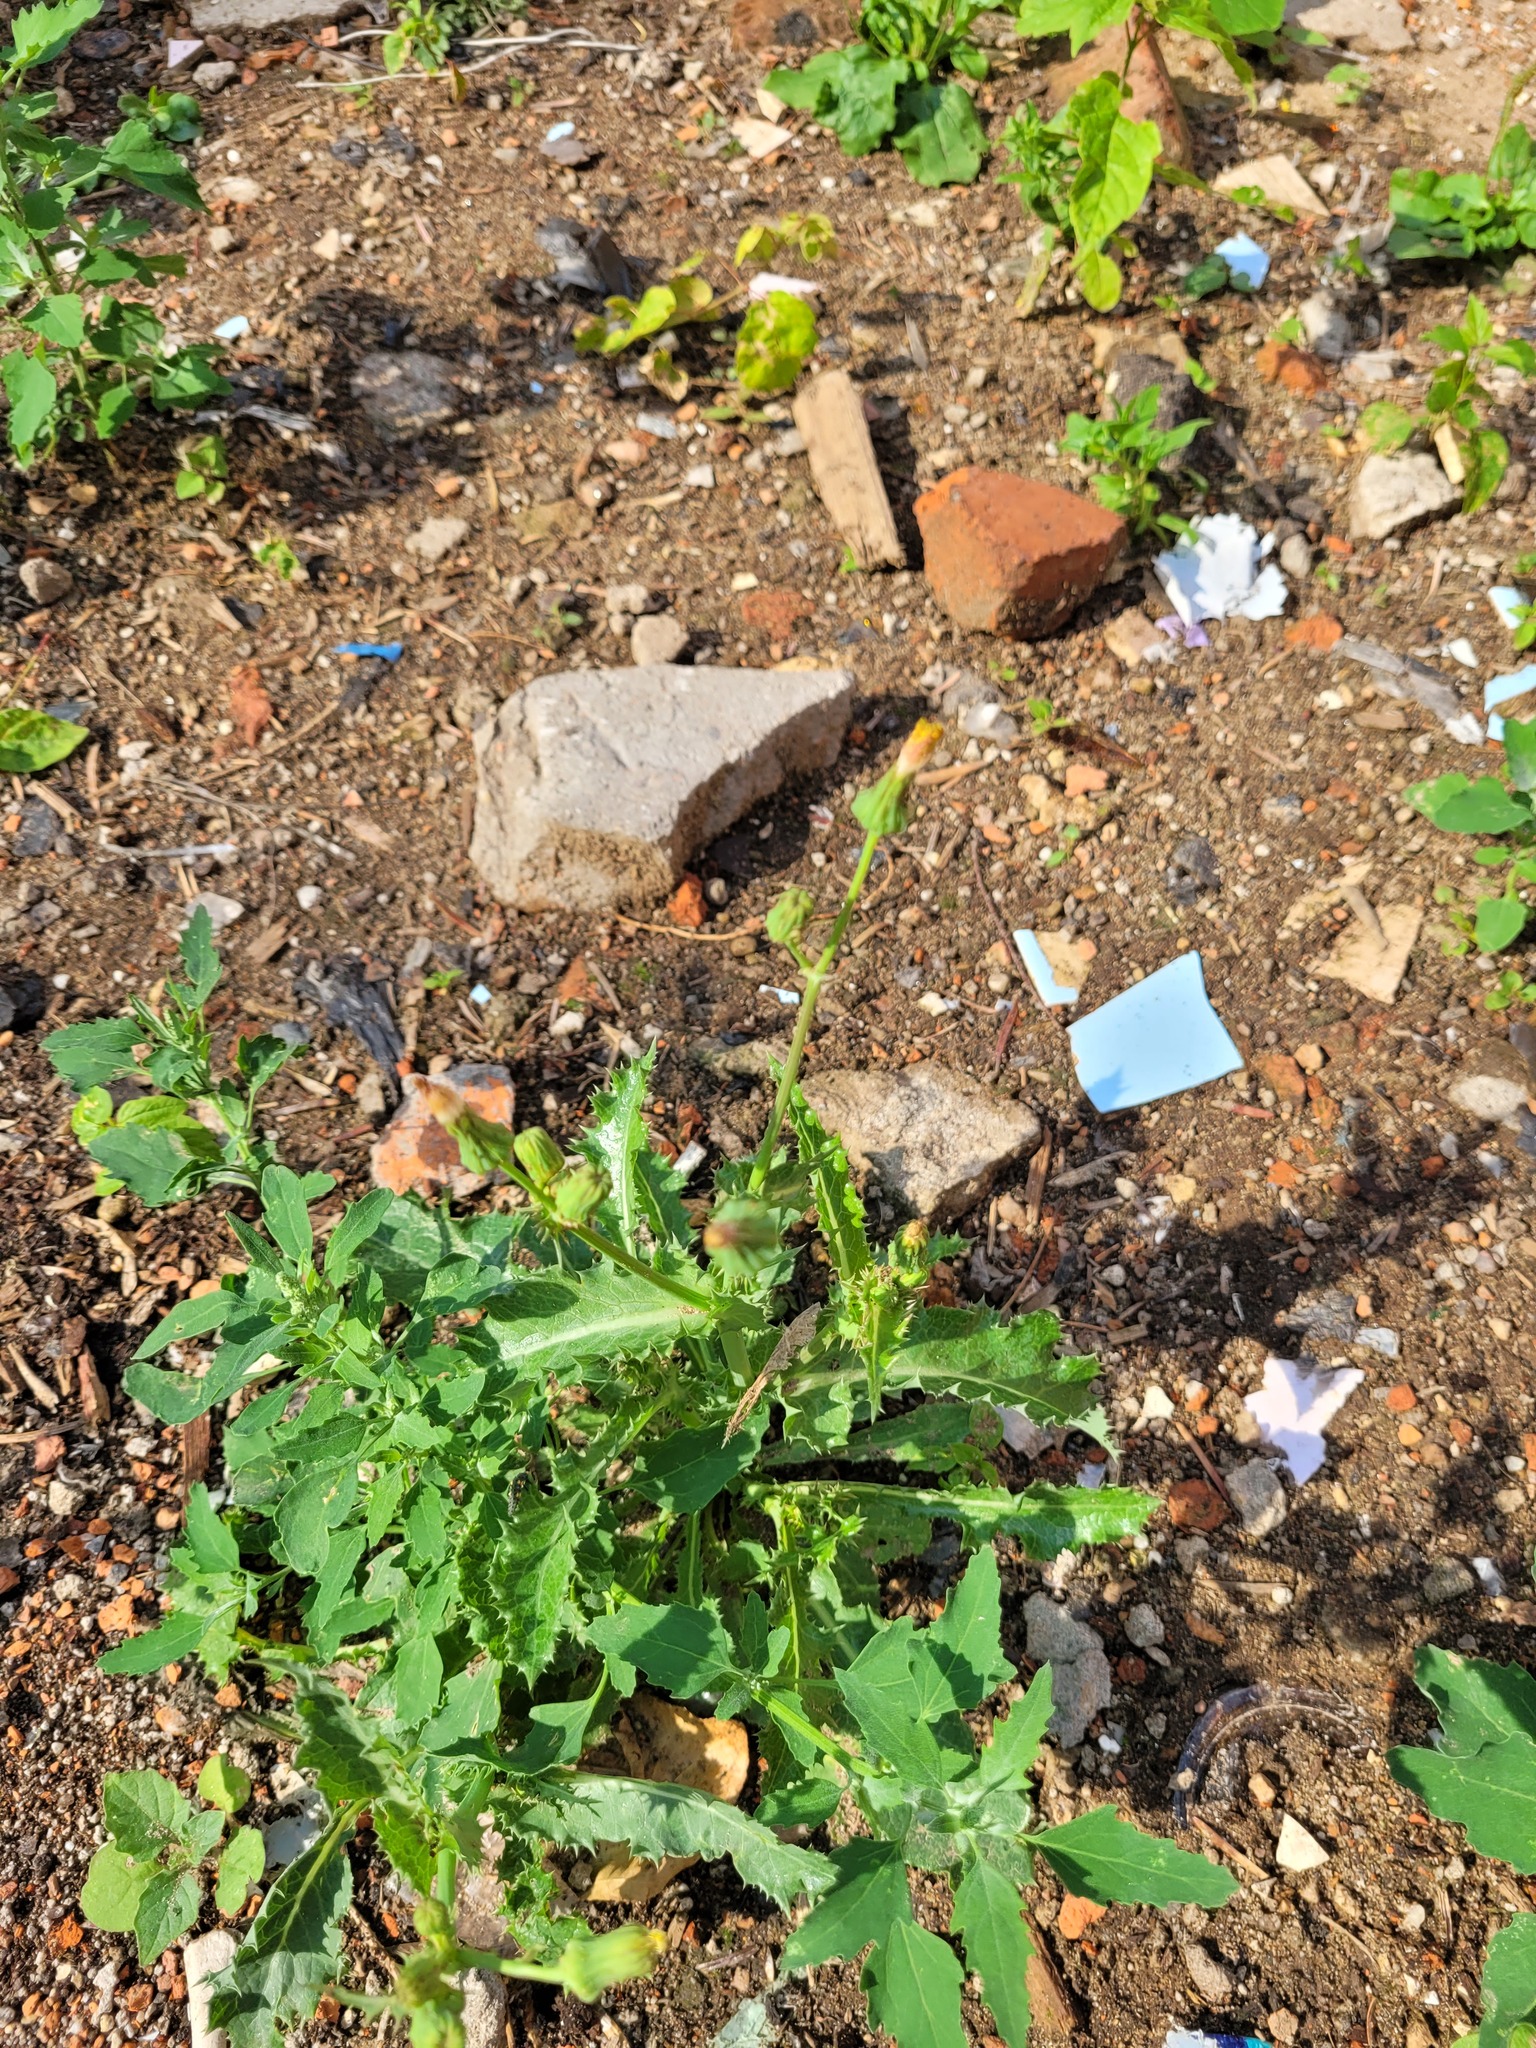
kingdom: Plantae
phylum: Tracheophyta
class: Magnoliopsida
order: Asterales
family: Asteraceae
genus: Sonchus
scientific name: Sonchus asper
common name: Prickly sow-thistle
